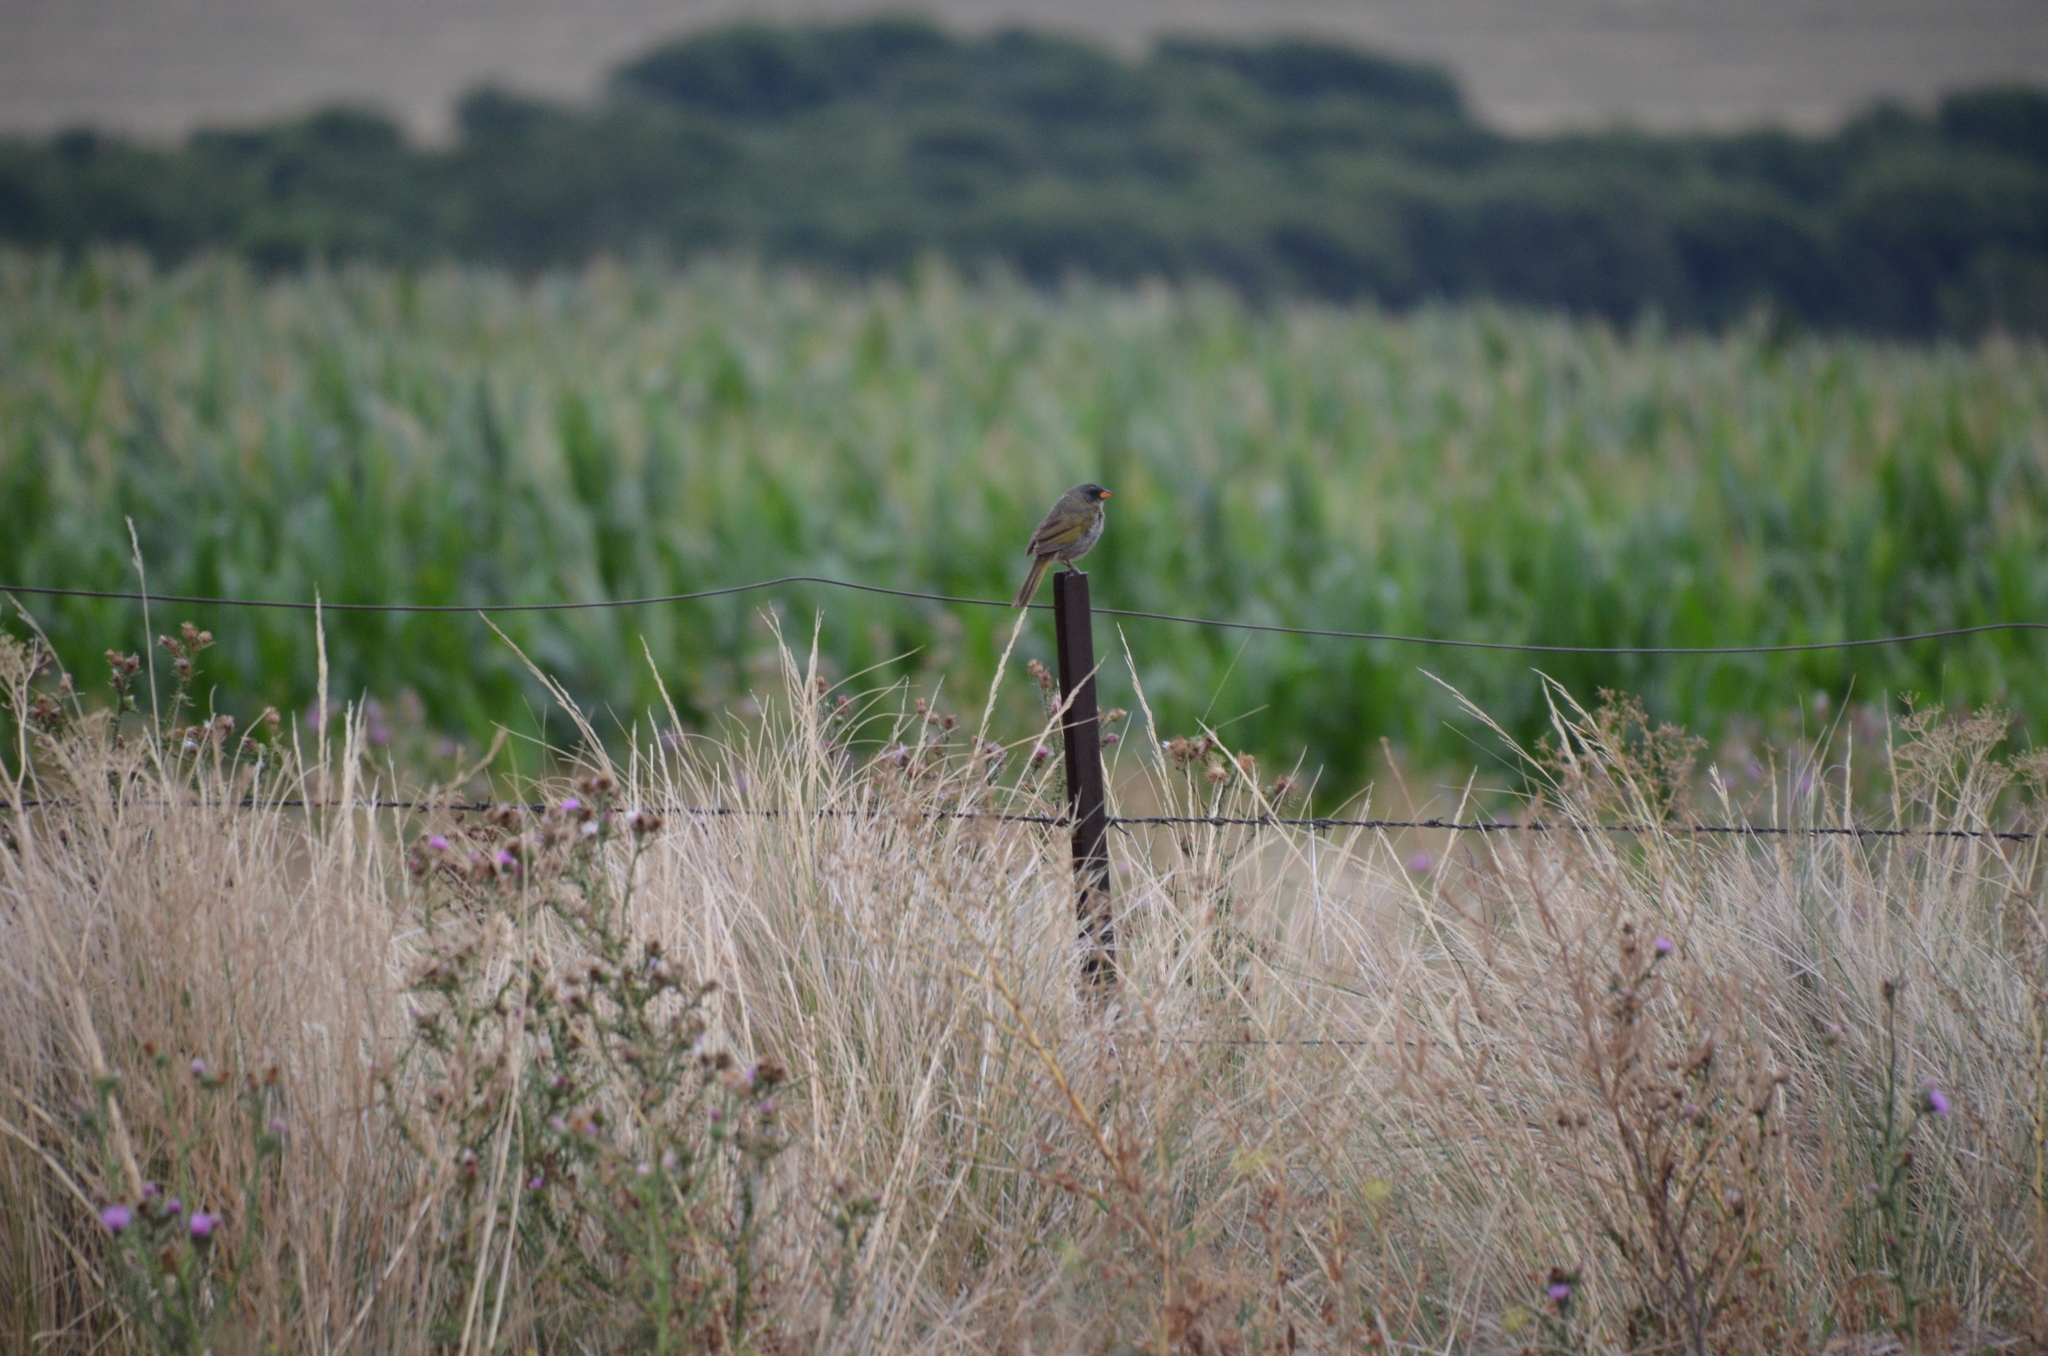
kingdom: Animalia
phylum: Chordata
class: Aves
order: Passeriformes
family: Thraupidae
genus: Embernagra
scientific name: Embernagra platensis
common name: Pampa finch
